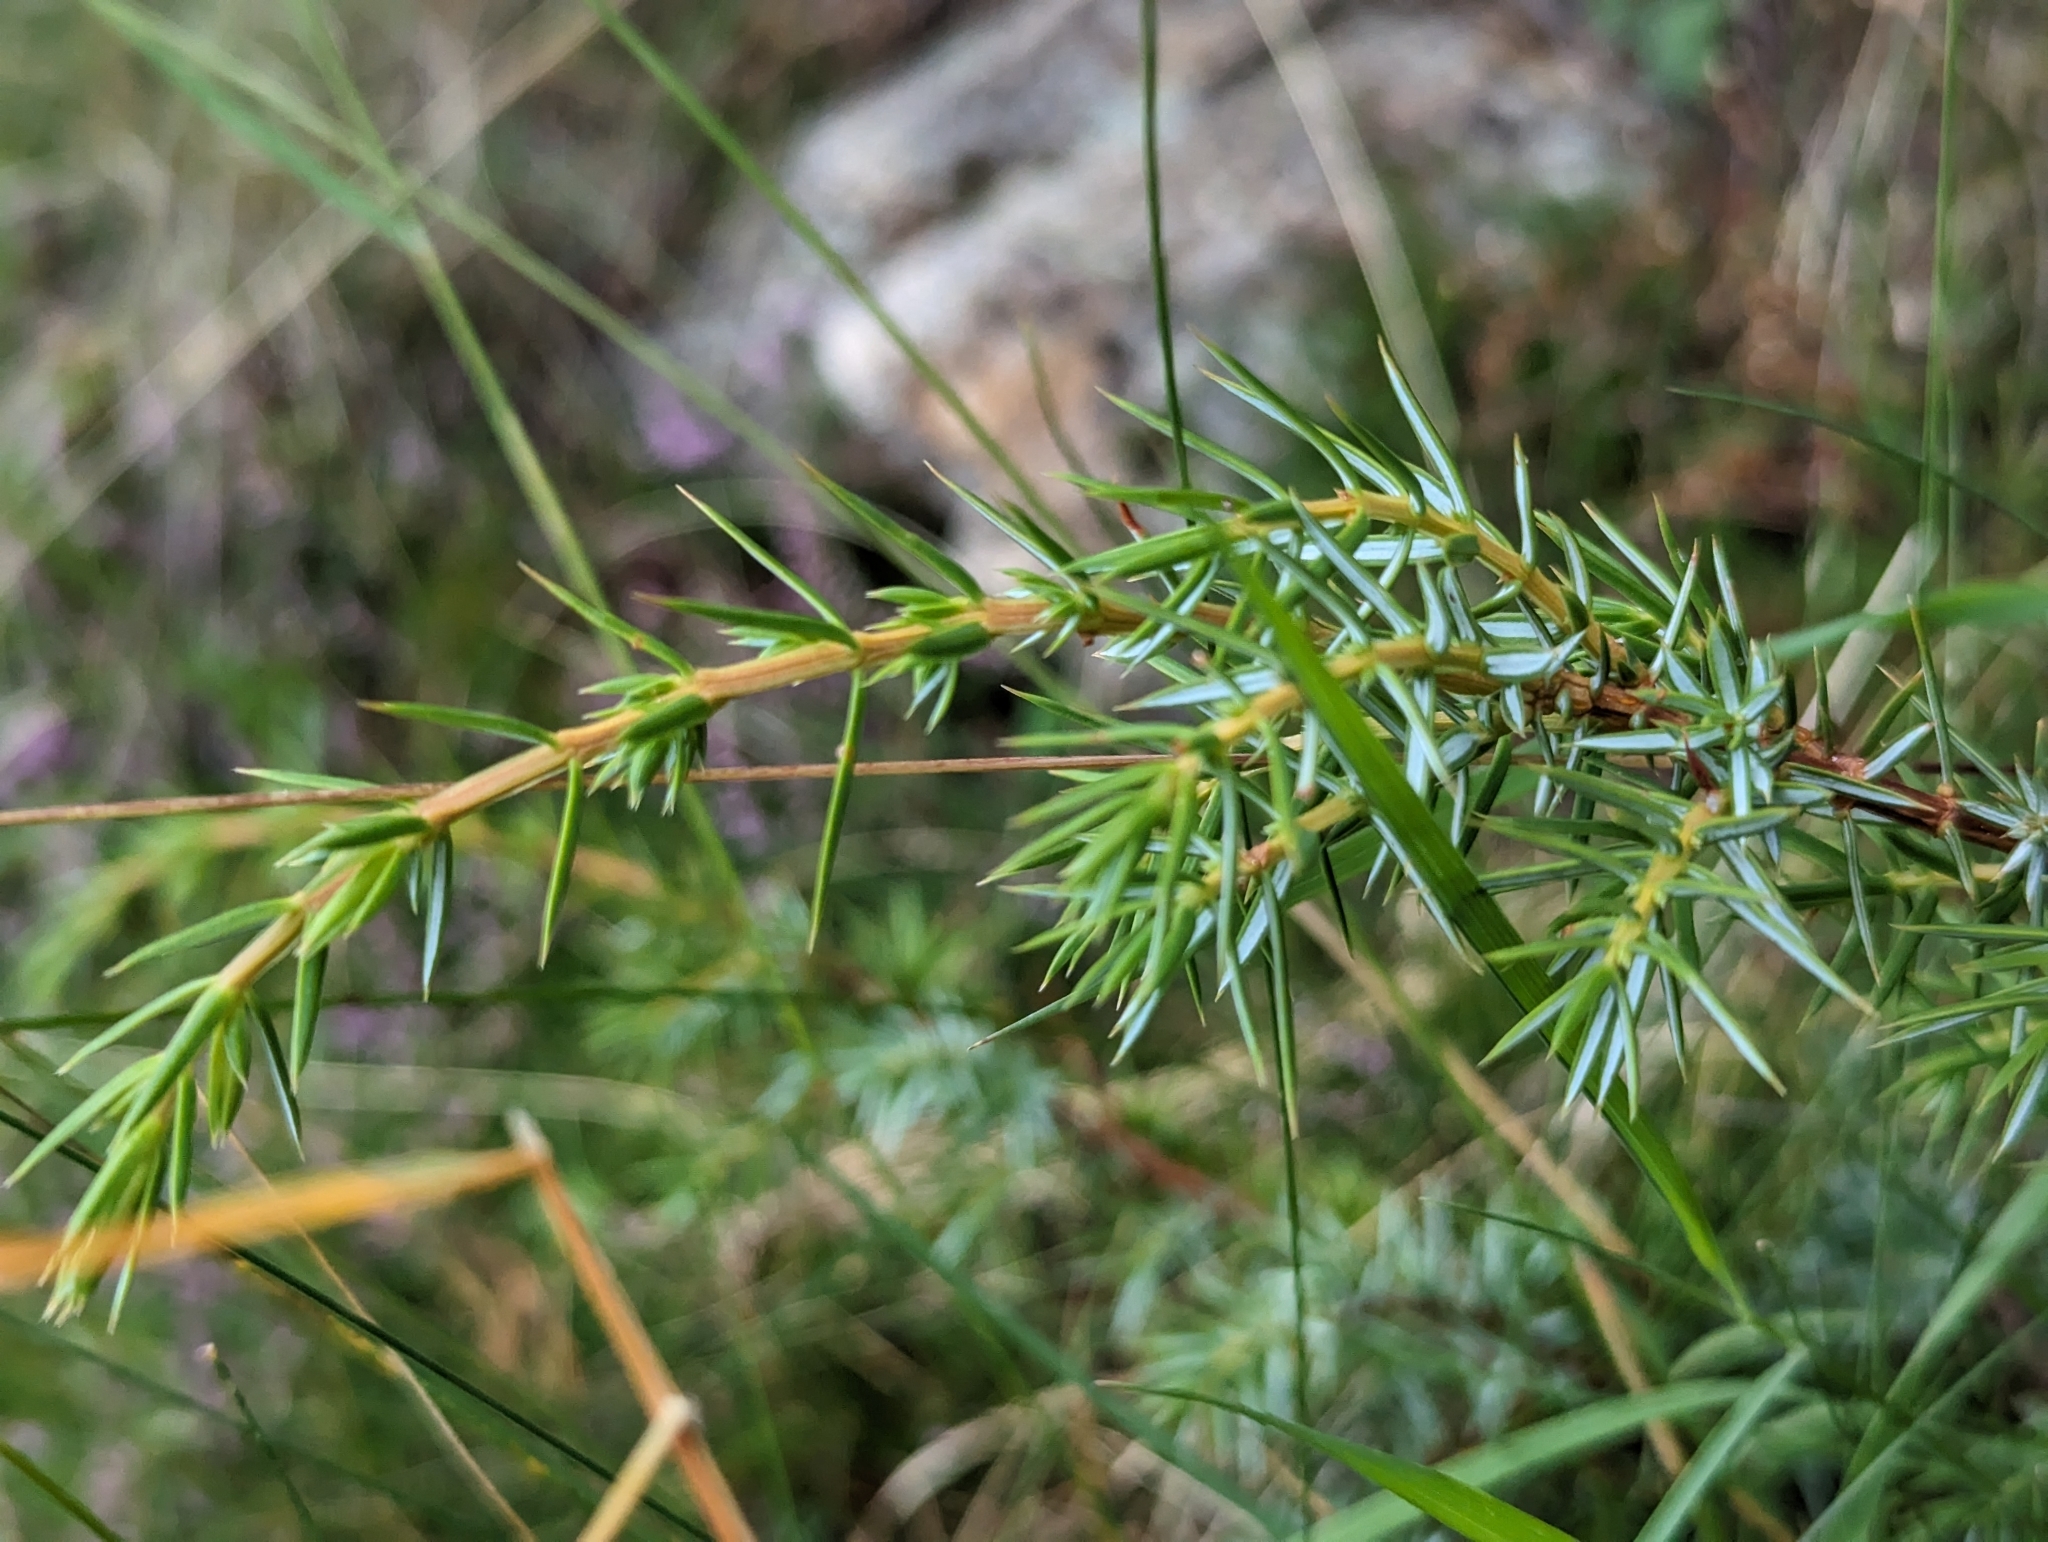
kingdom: Plantae
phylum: Tracheophyta
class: Pinopsida
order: Pinales
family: Cupressaceae
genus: Juniperus
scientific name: Juniperus communis
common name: Common juniper
